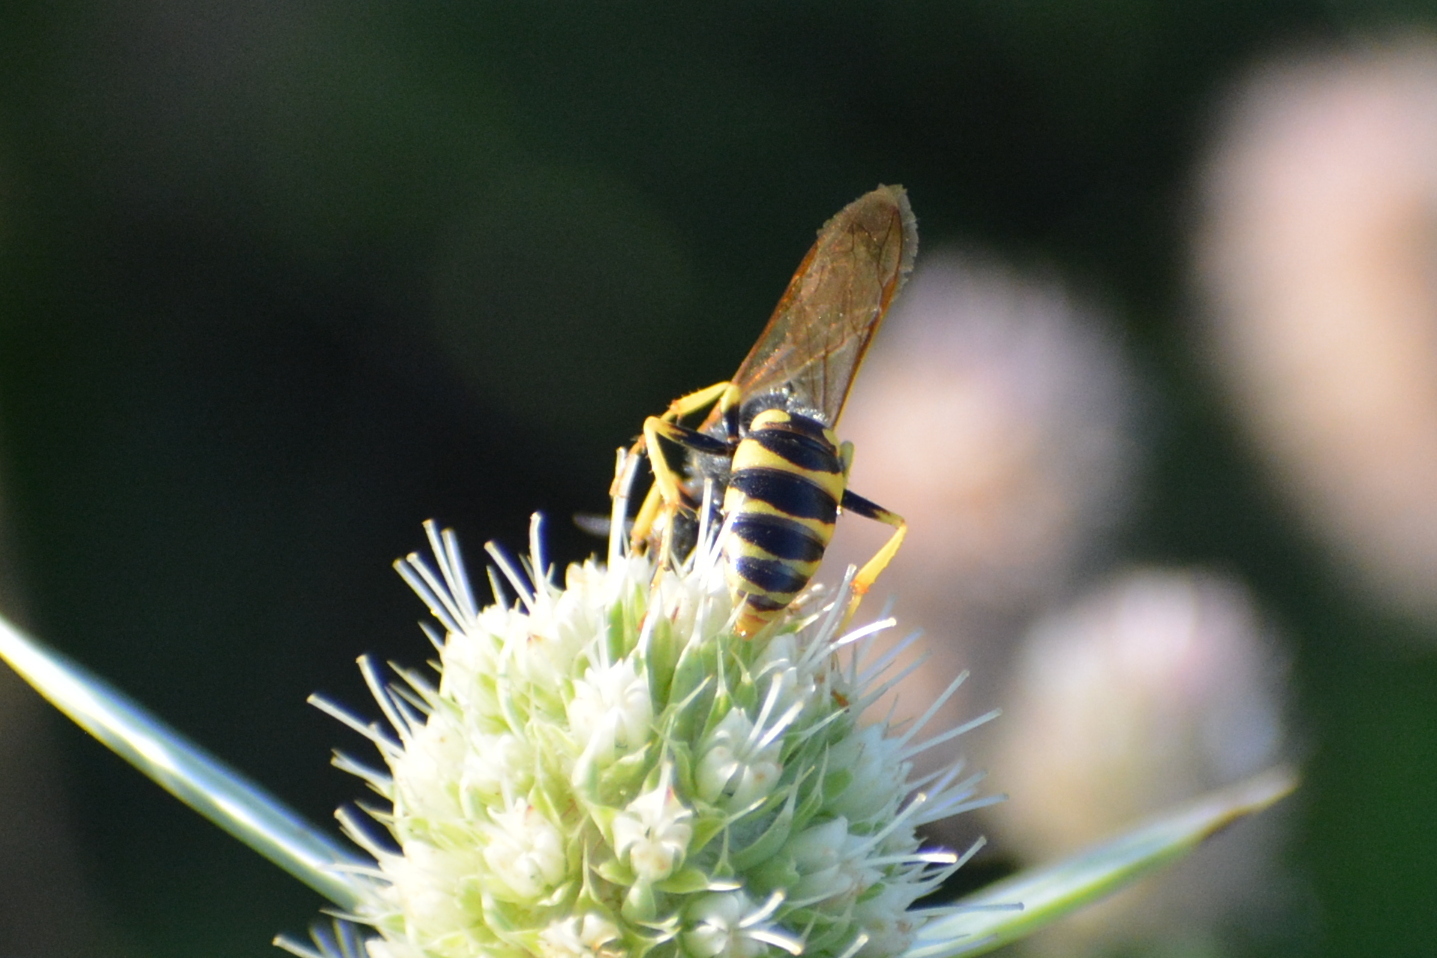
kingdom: Animalia
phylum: Arthropoda
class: Insecta
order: Hymenoptera
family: Crabronidae
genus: Philanthus
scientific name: Philanthus triangulum
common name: Bee wolf
